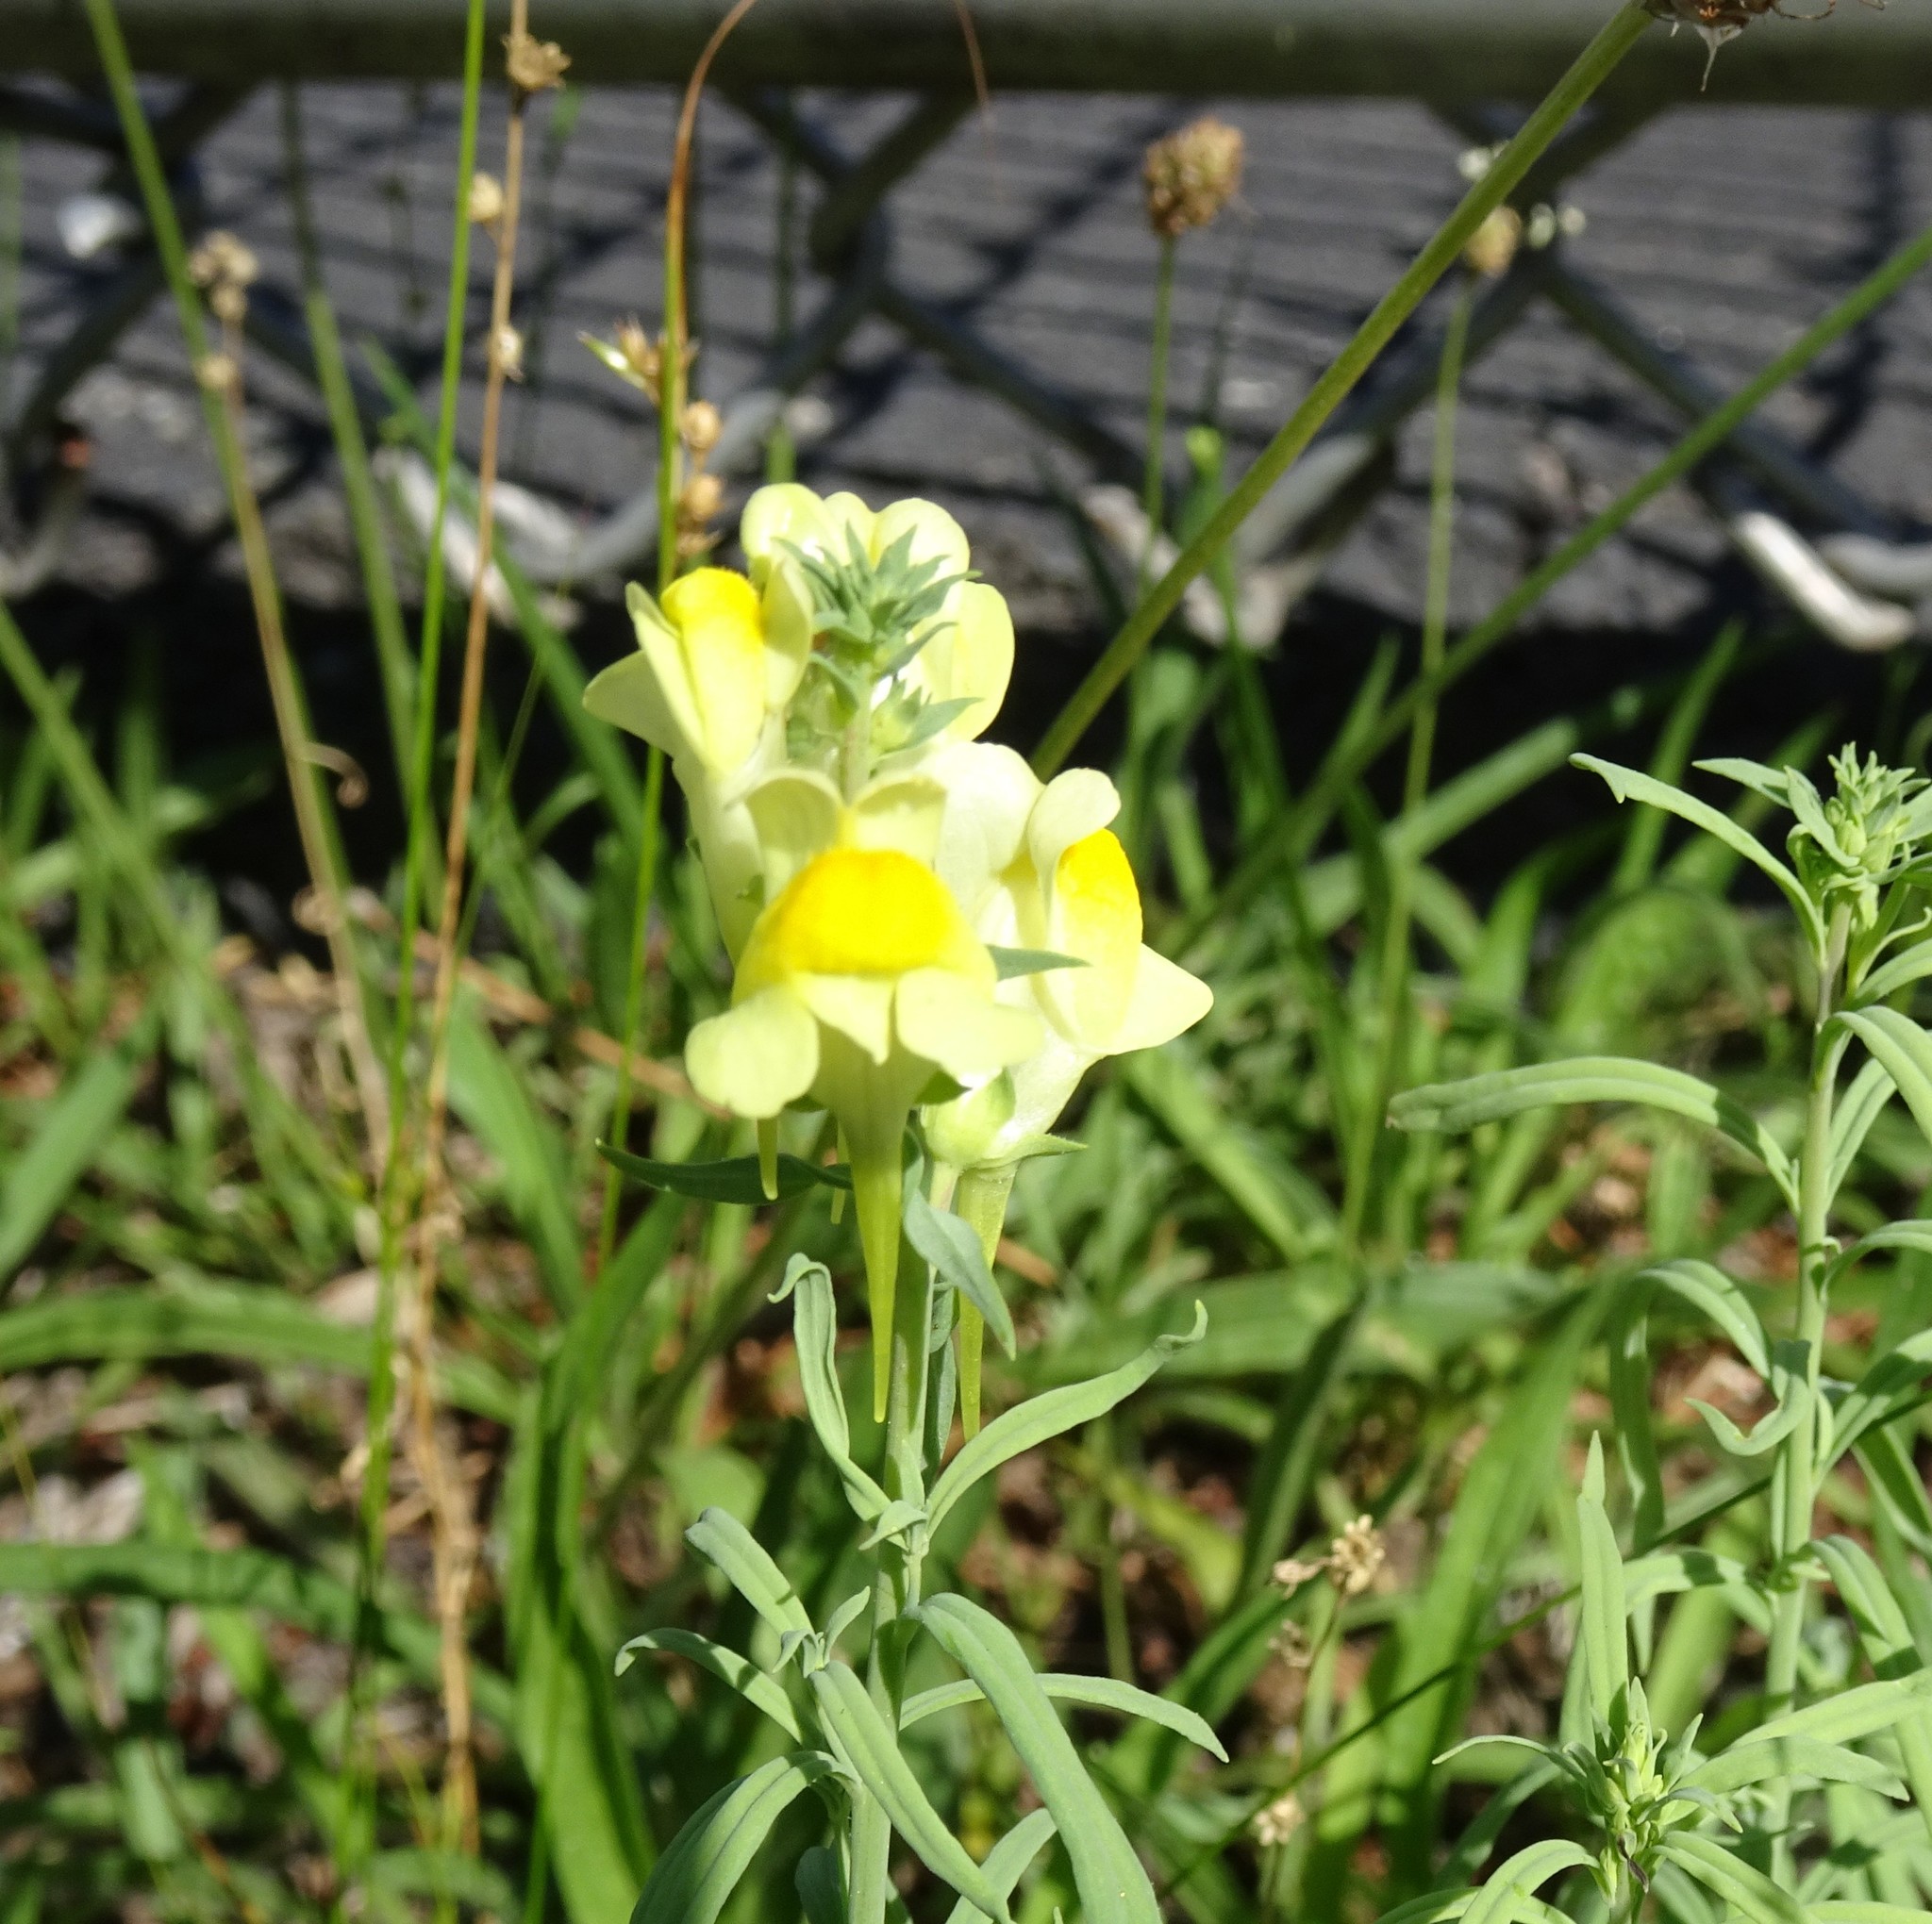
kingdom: Plantae
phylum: Tracheophyta
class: Magnoliopsida
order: Lamiales
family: Plantaginaceae
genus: Linaria
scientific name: Linaria vulgaris
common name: Butter and eggs
